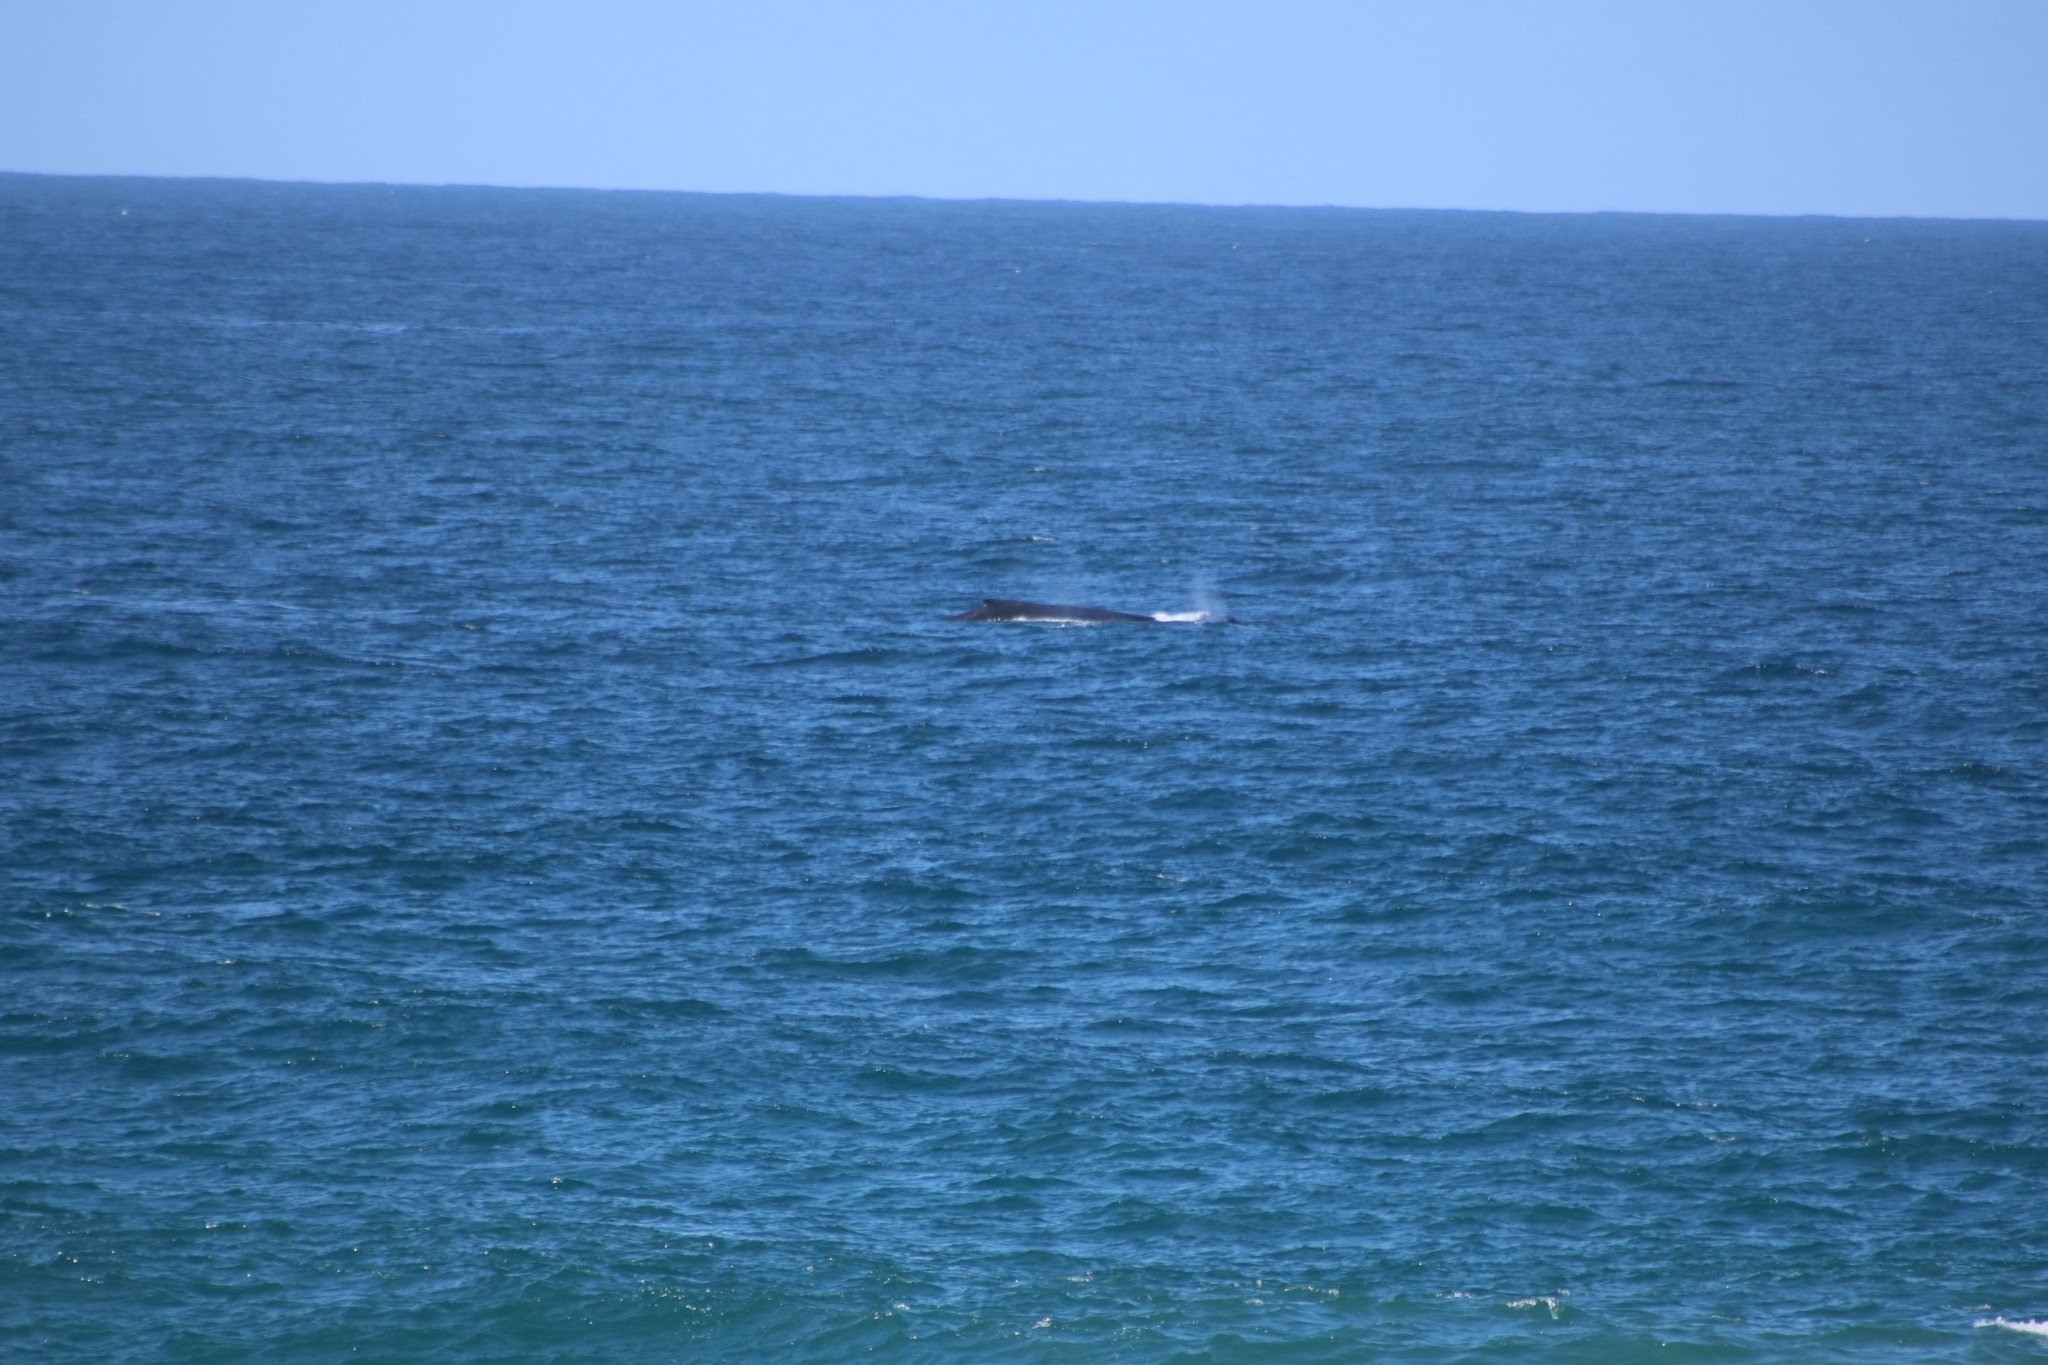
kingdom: Animalia
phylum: Chordata
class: Mammalia
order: Cetacea
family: Balaenopteridae
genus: Megaptera
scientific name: Megaptera novaeangliae
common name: Humpback whale
